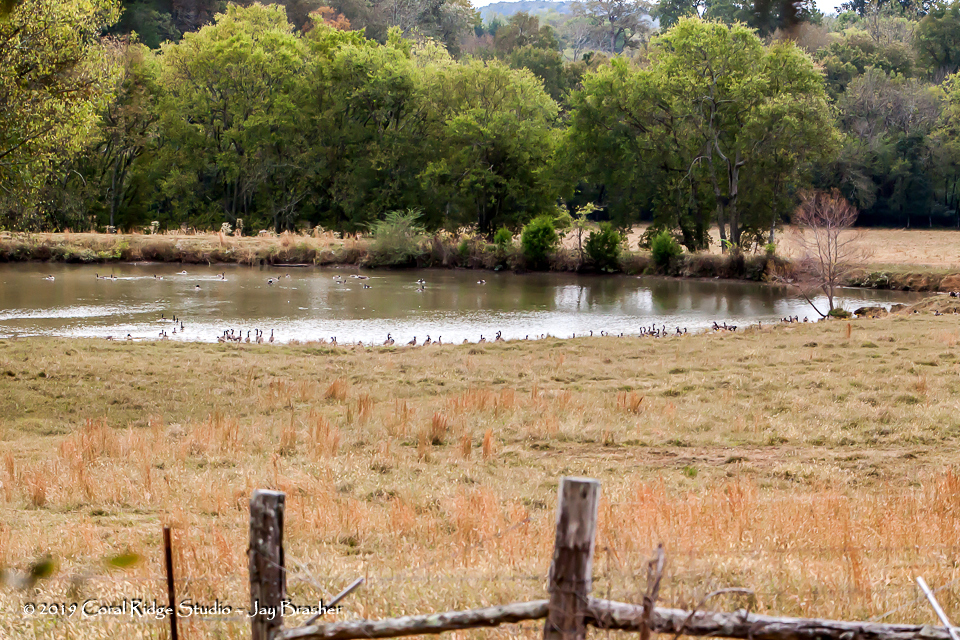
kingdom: Animalia
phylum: Chordata
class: Aves
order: Anseriformes
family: Anatidae
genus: Branta
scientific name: Branta canadensis
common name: Canada goose
